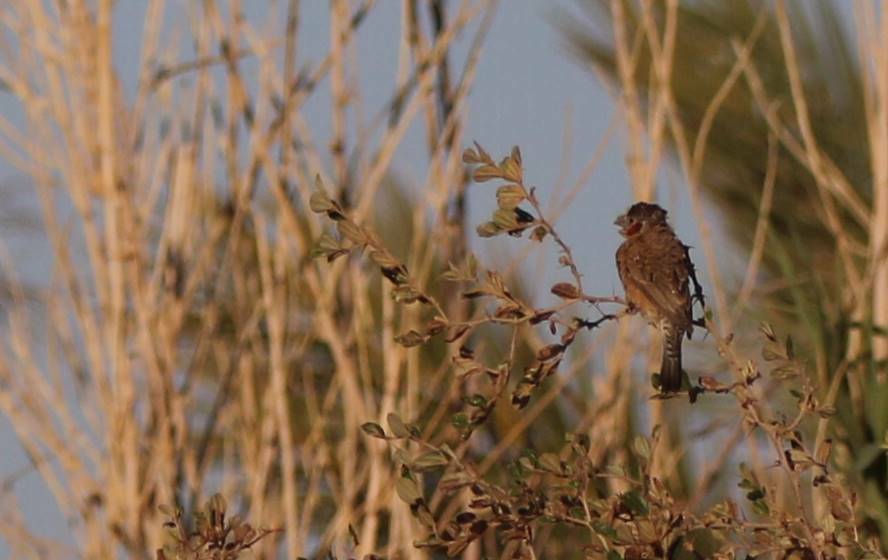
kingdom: Animalia
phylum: Chordata
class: Aves
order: Passeriformes
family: Estrildidae
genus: Amadina
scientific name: Amadina fasciata
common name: Cut-throat finch
